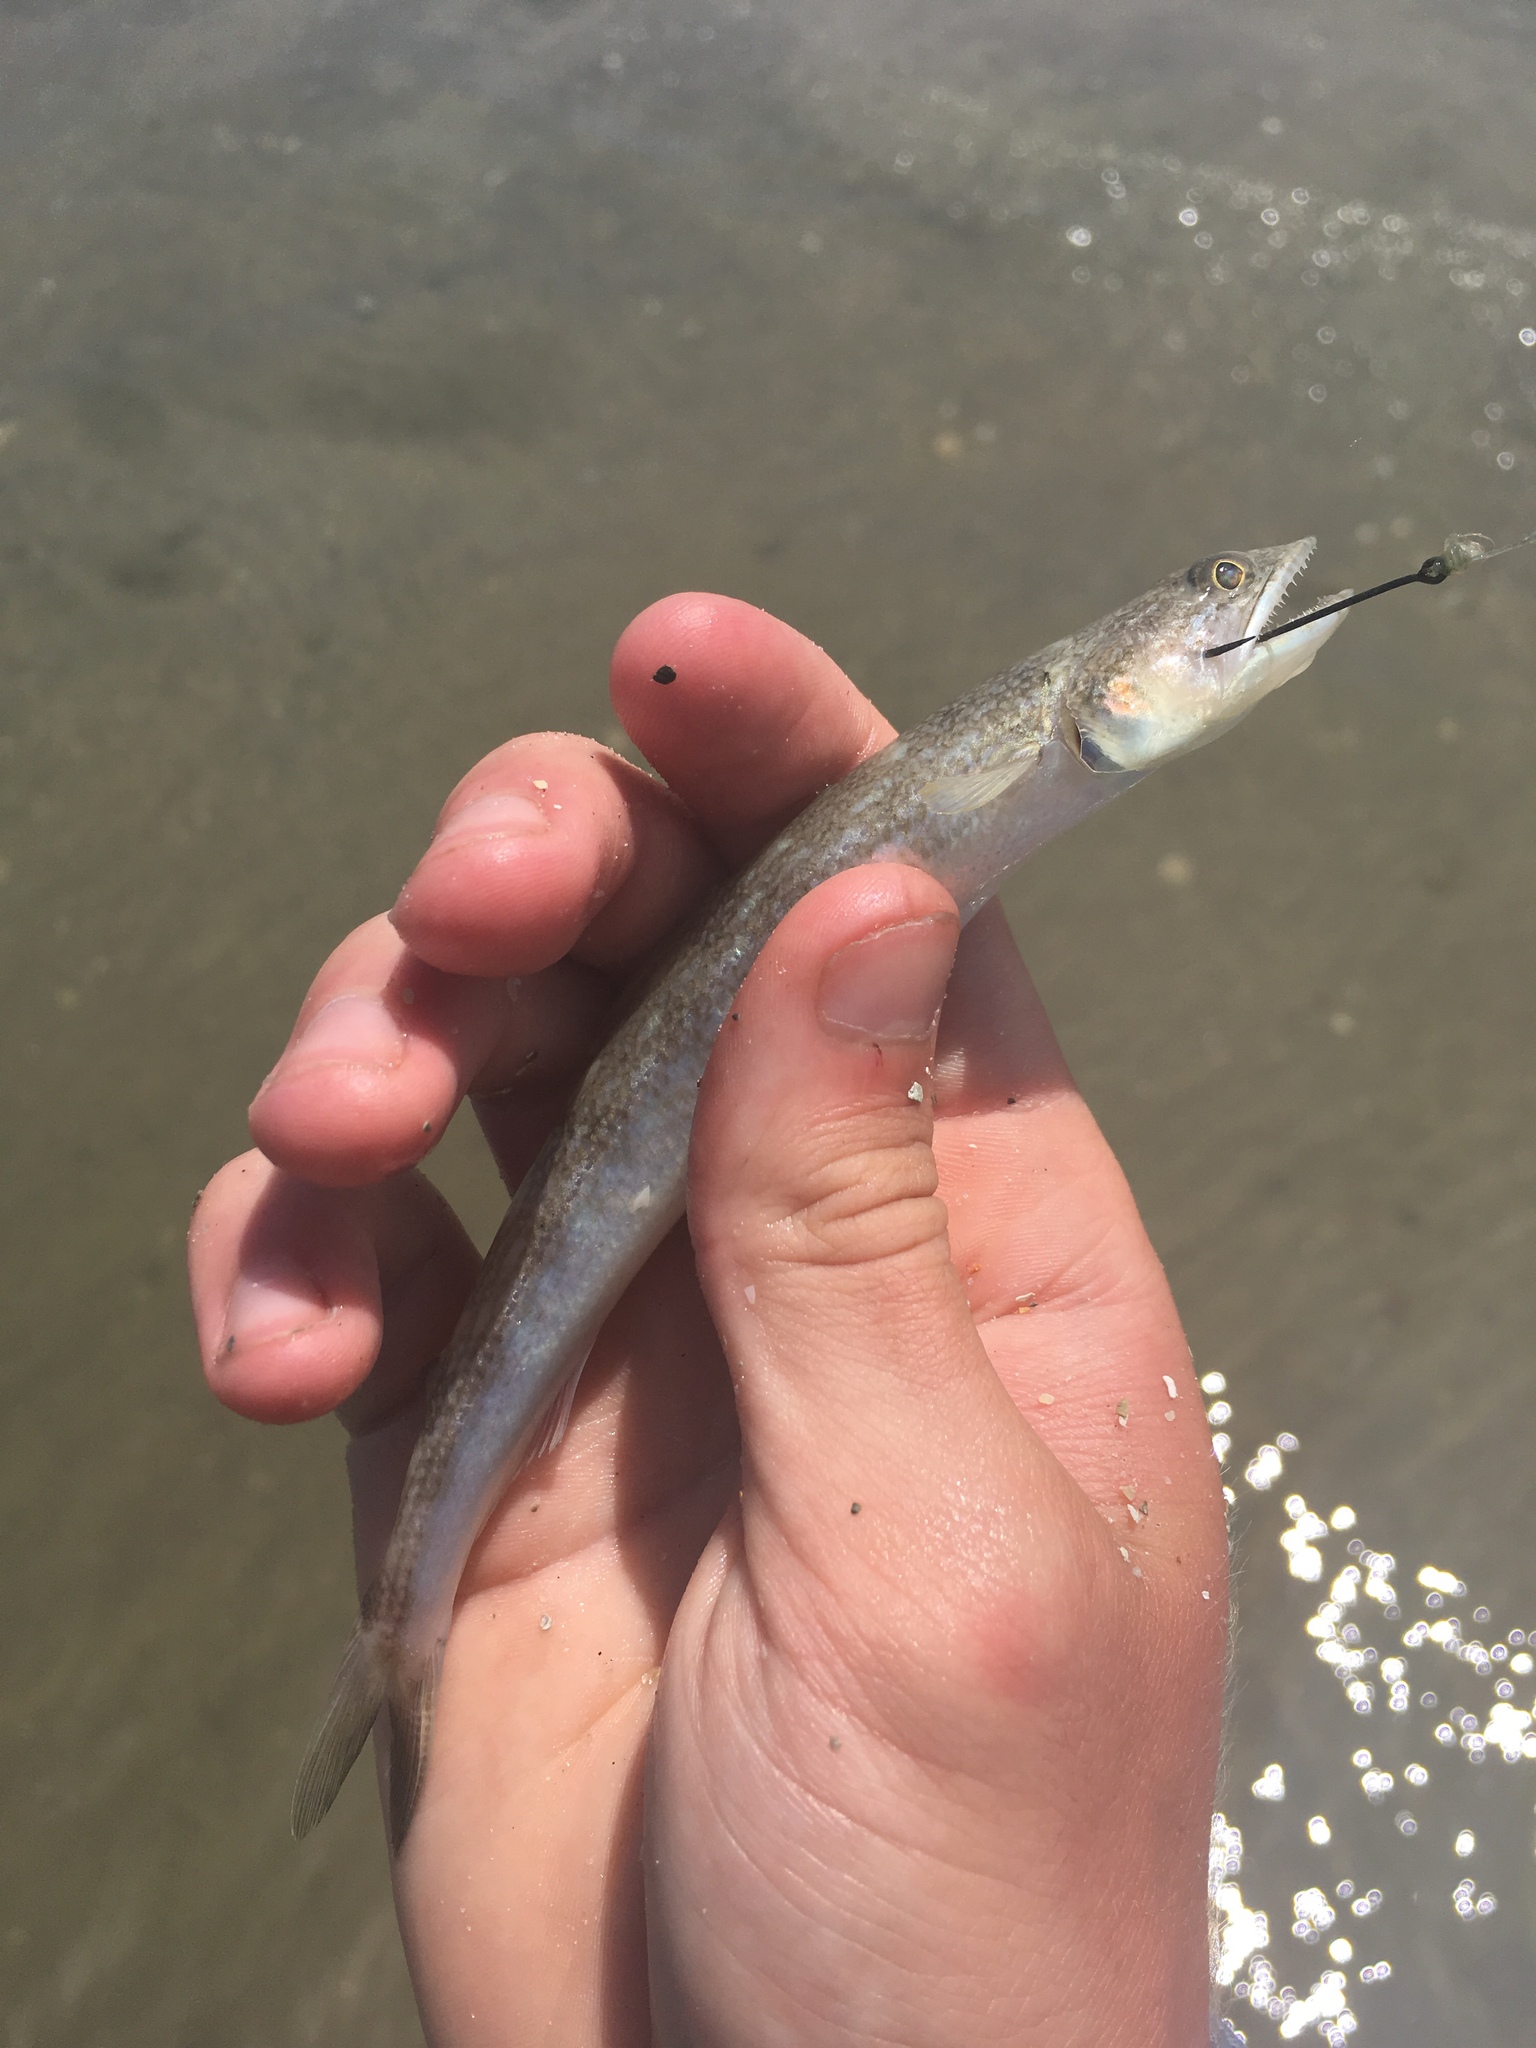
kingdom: Animalia
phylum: Chordata
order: Aulopiformes
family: Synodontidae
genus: Synodus
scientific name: Synodus foetens
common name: Inshore lizardfish
